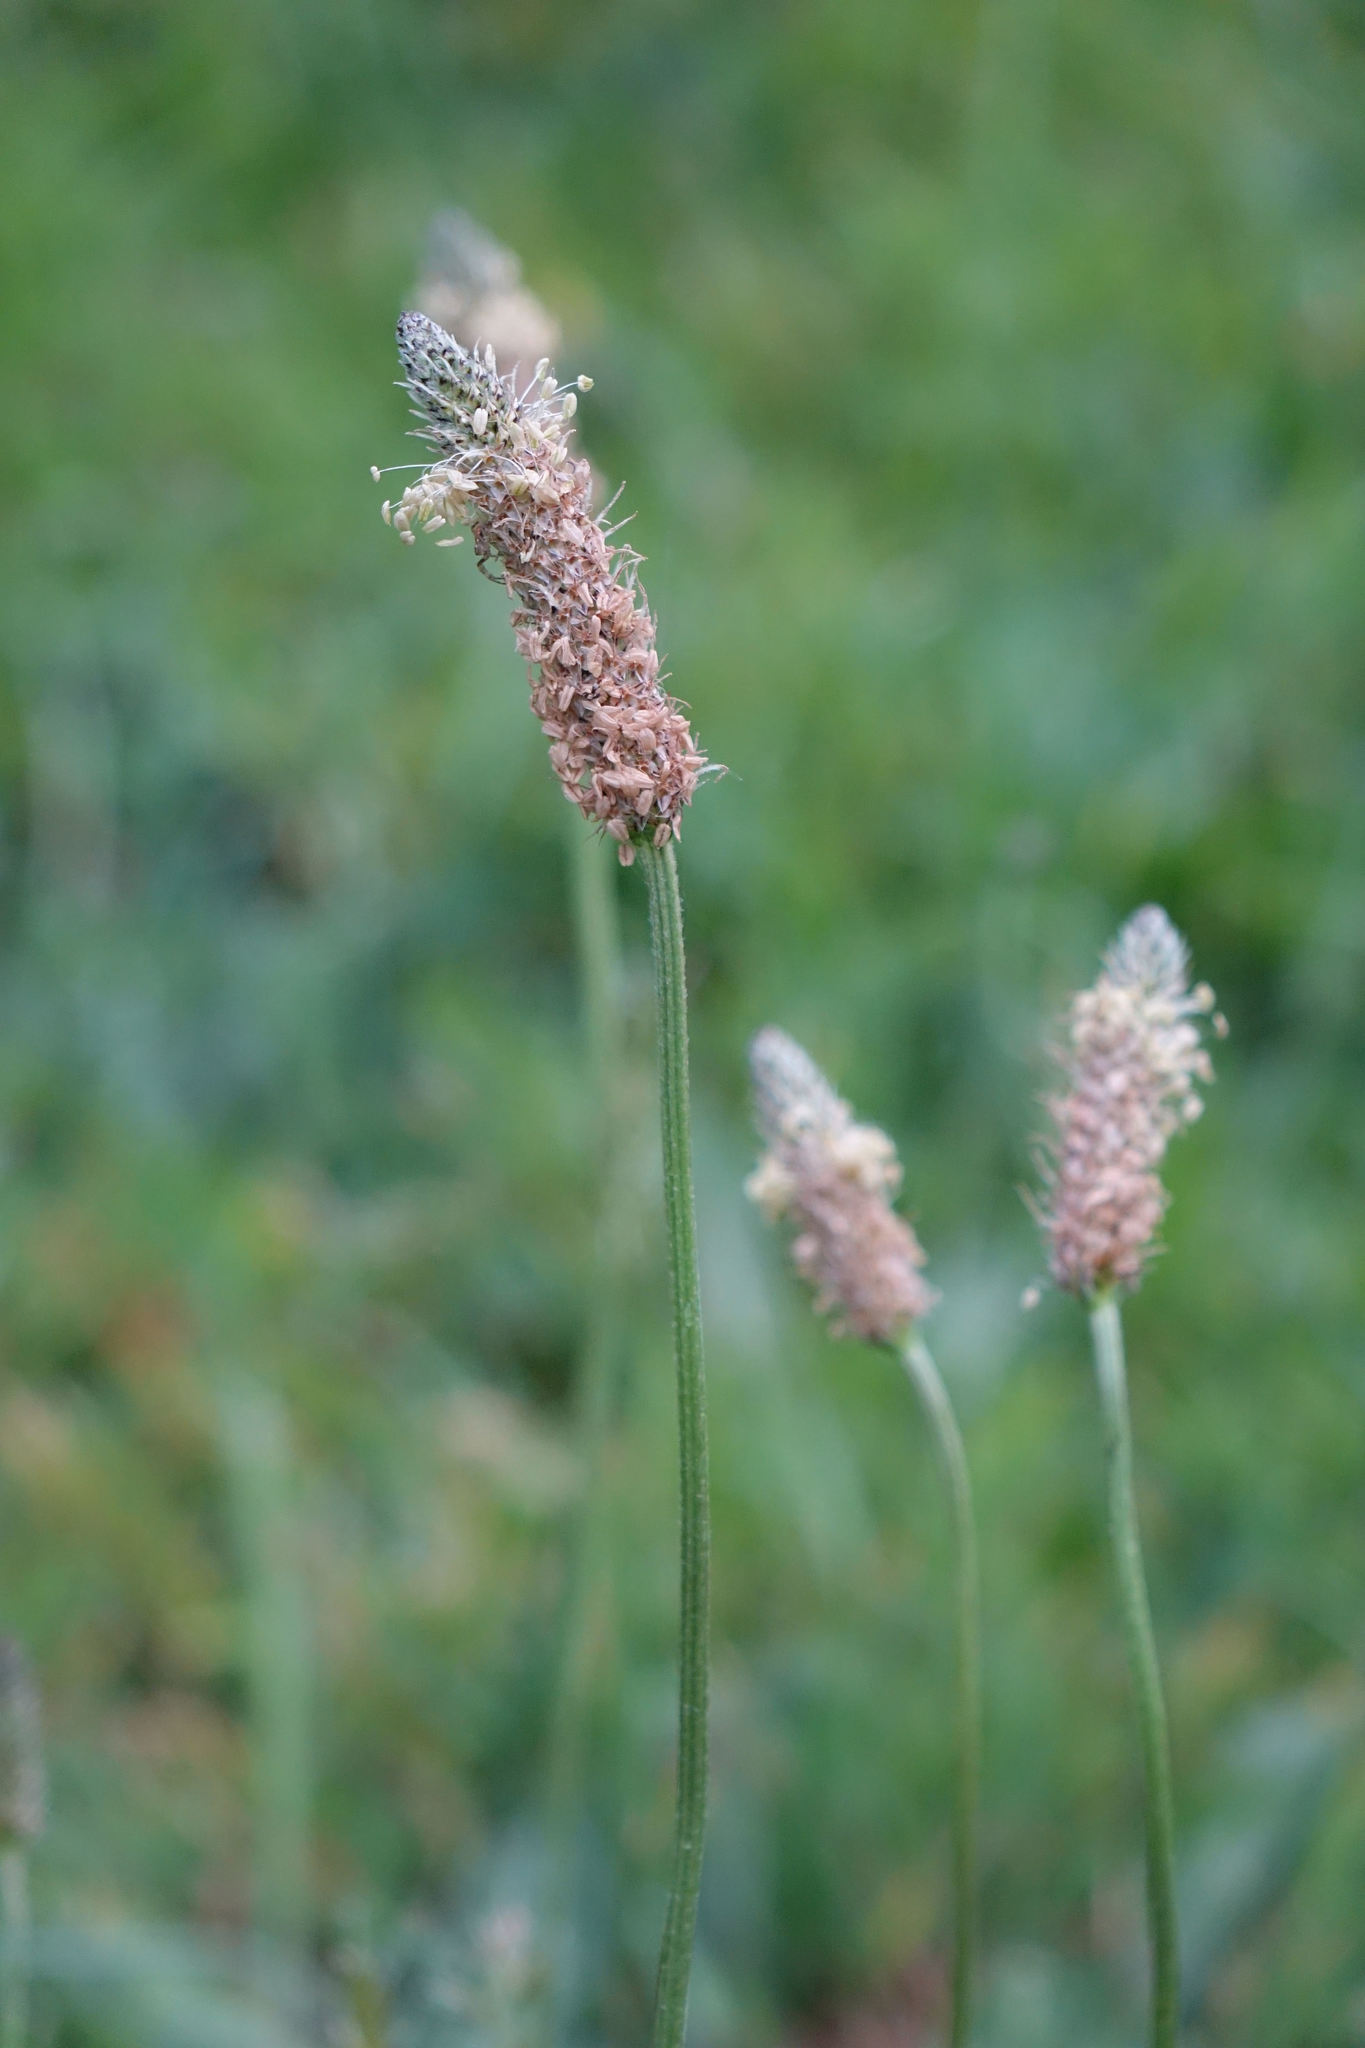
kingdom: Plantae
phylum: Tracheophyta
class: Magnoliopsida
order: Lamiales
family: Plantaginaceae
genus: Plantago
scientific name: Plantago lanceolata
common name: Ribwort plantain
